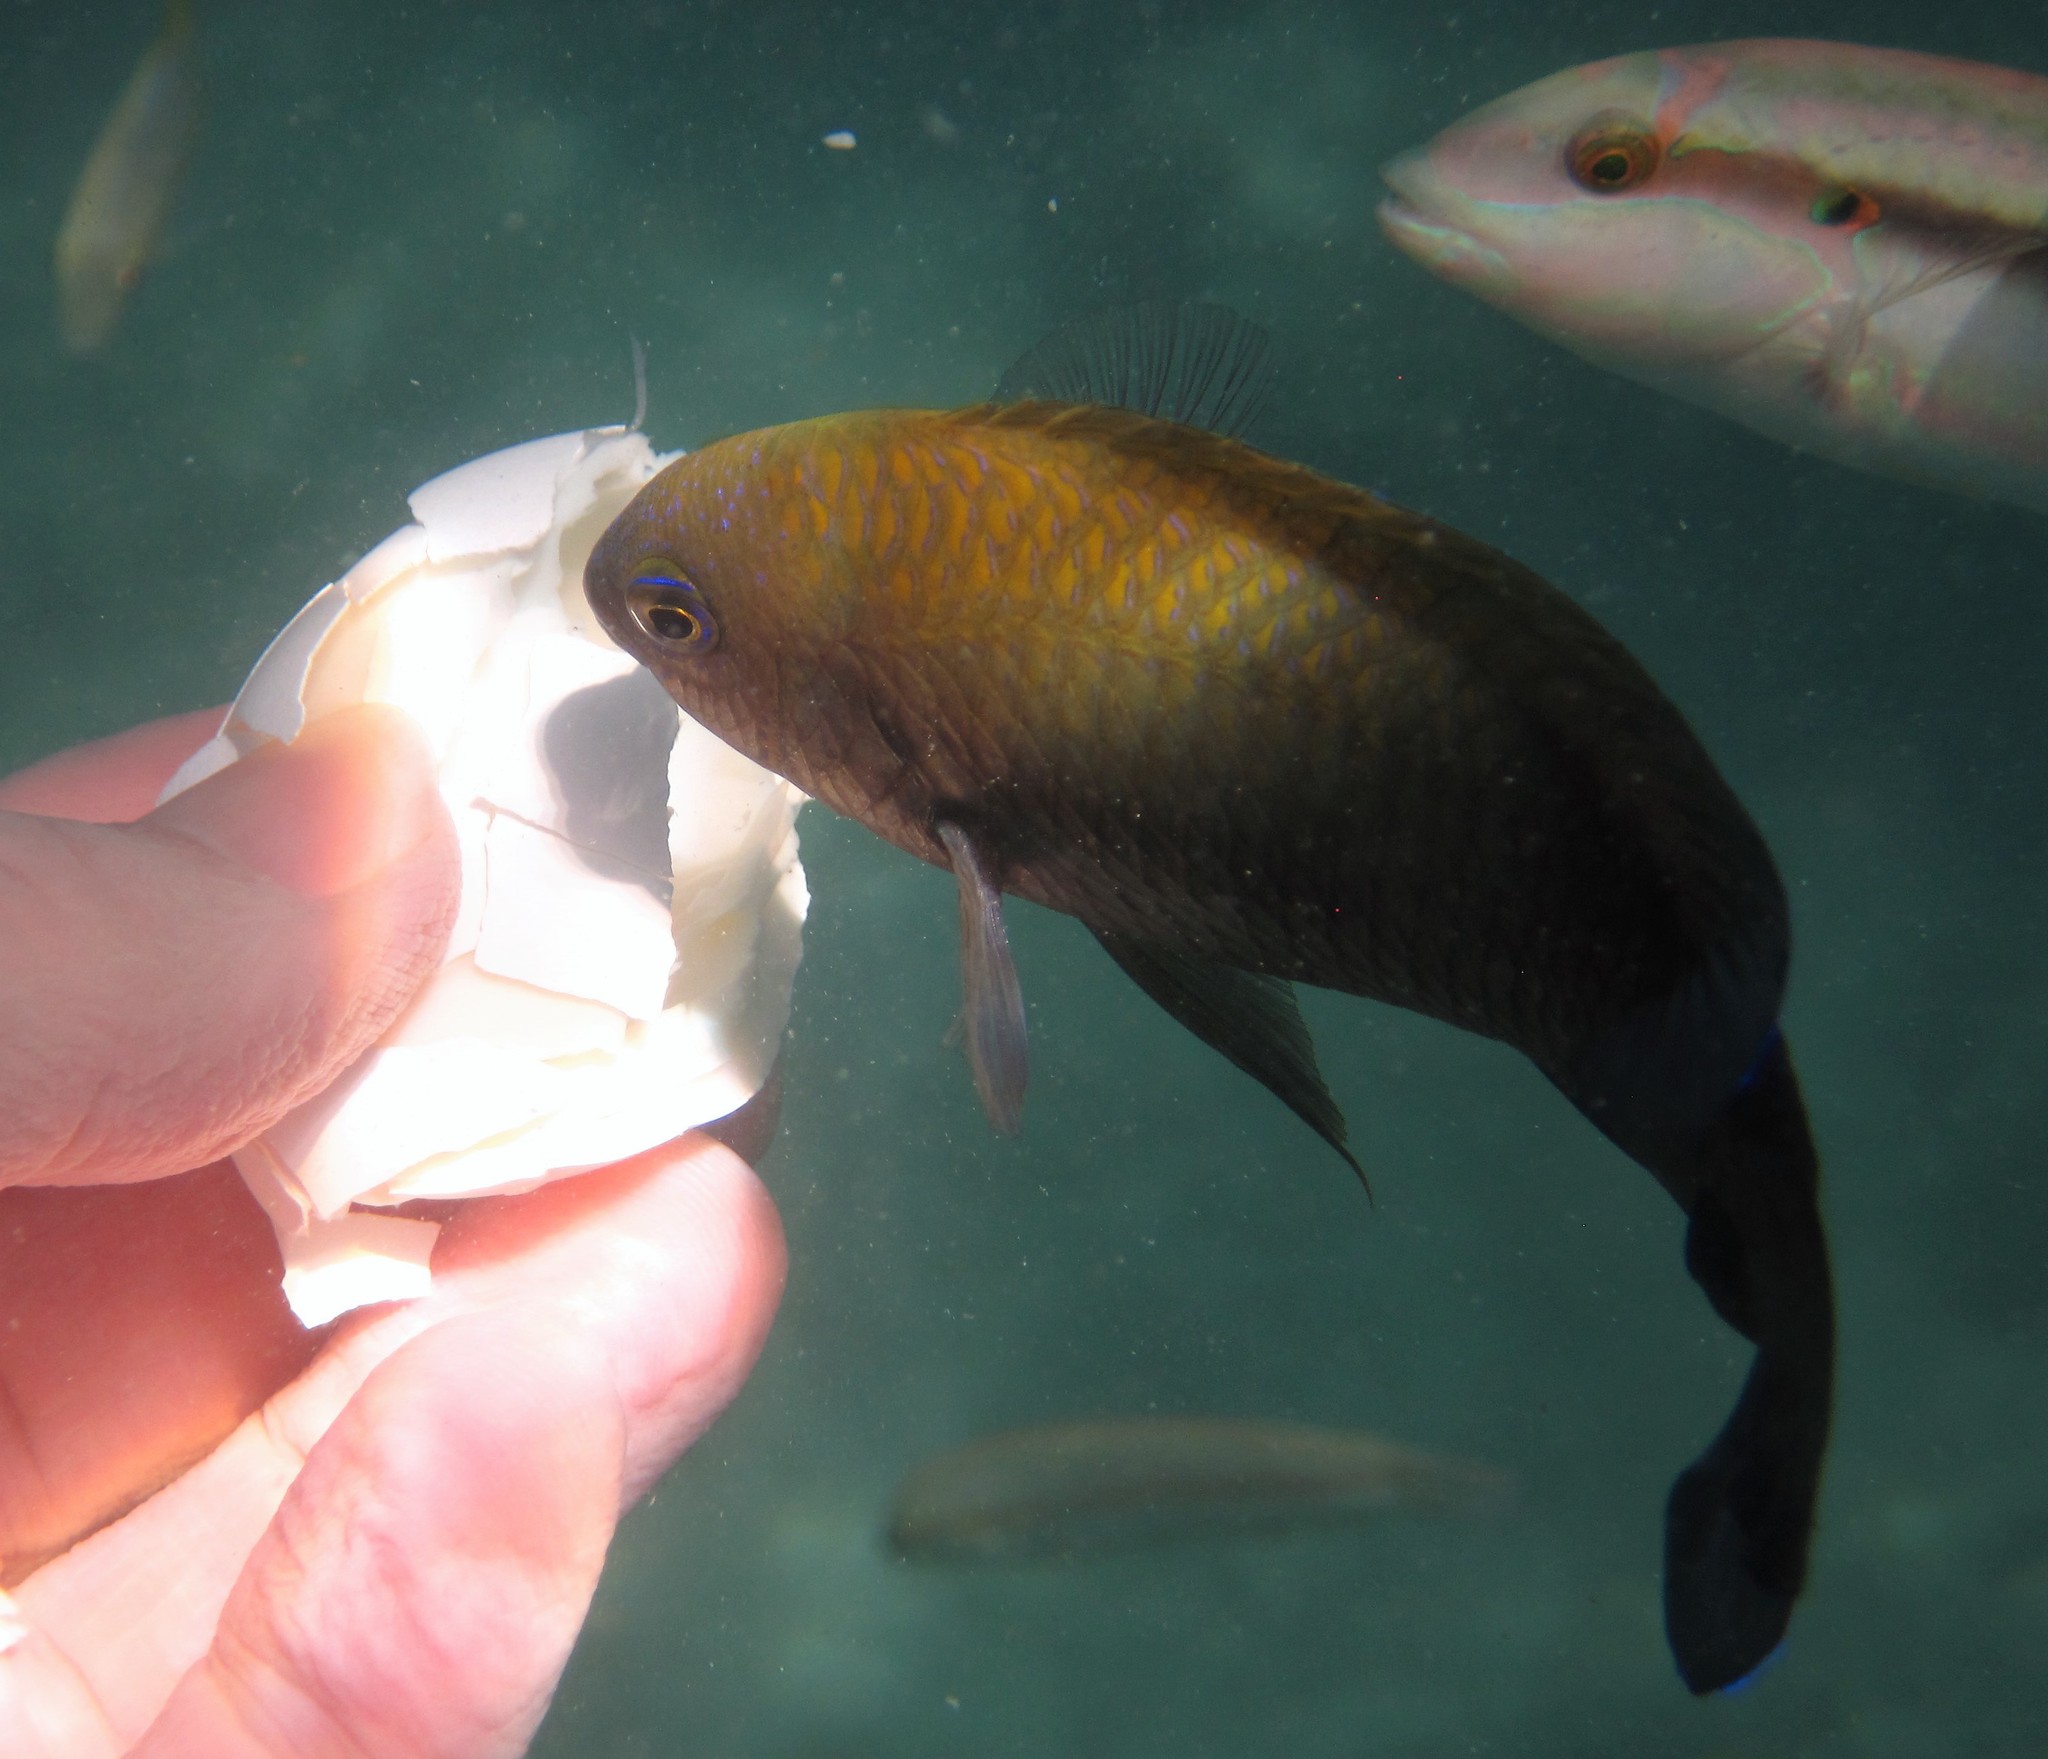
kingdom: Animalia
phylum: Chordata
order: Perciformes
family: Pomacentridae
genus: Stegastes
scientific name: Stegastes leucostictus
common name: Beaugregory
